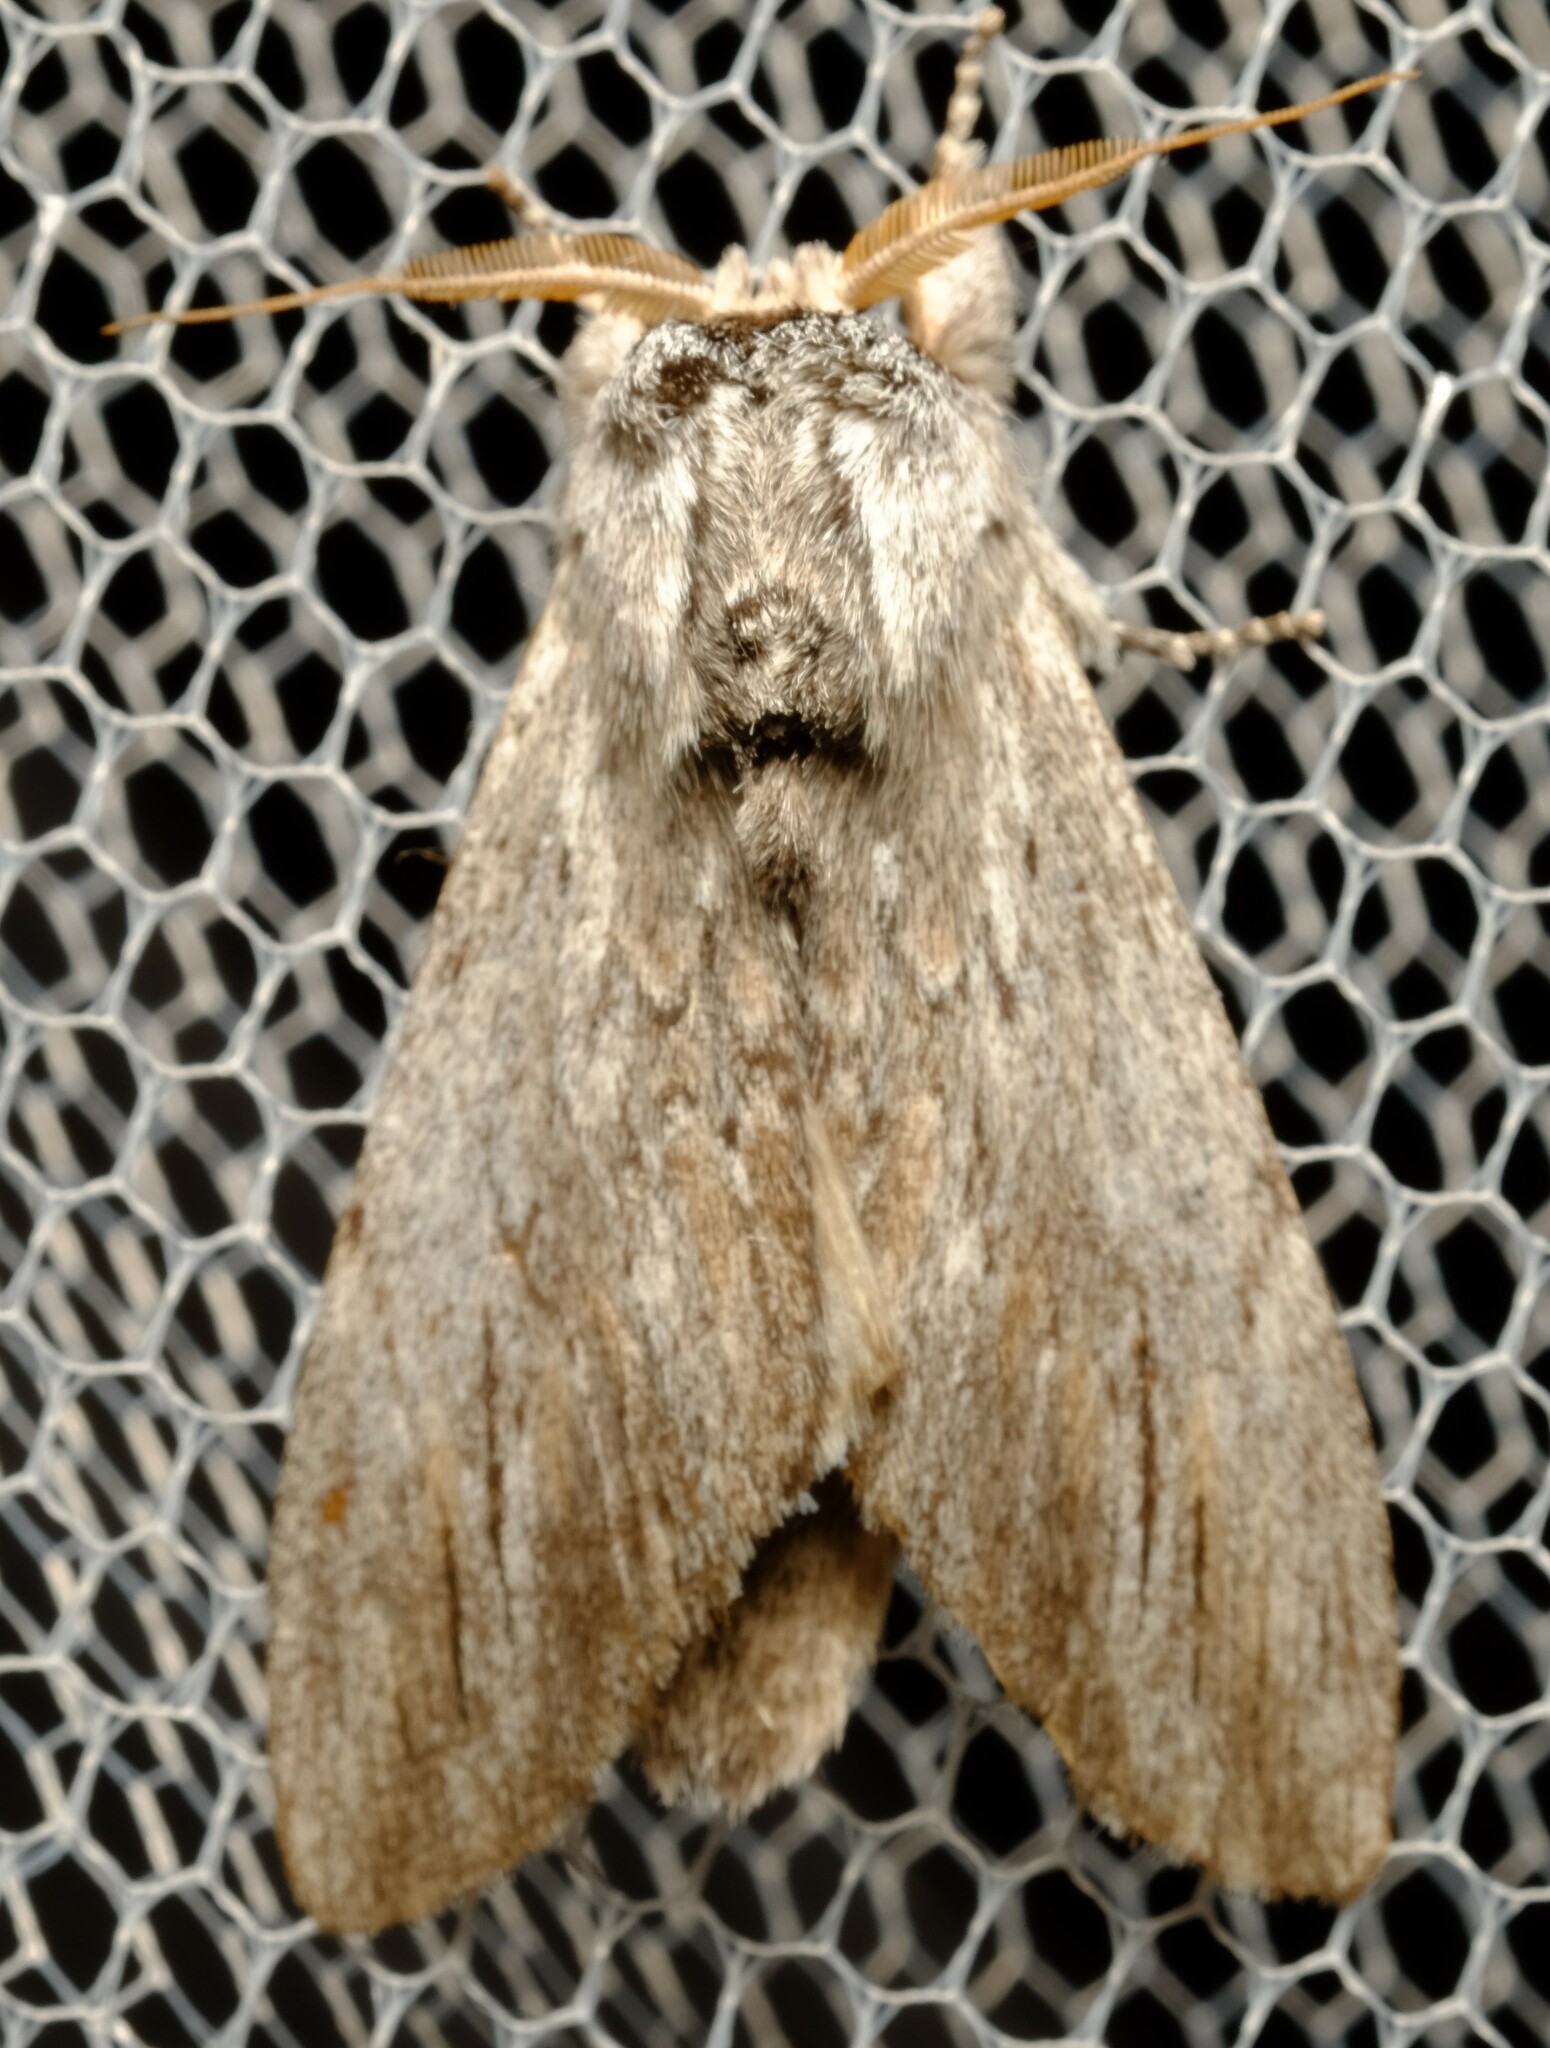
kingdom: Animalia
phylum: Arthropoda
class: Insecta
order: Lepidoptera
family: Notodontidae
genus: Destolmia
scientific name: Destolmia lineata
